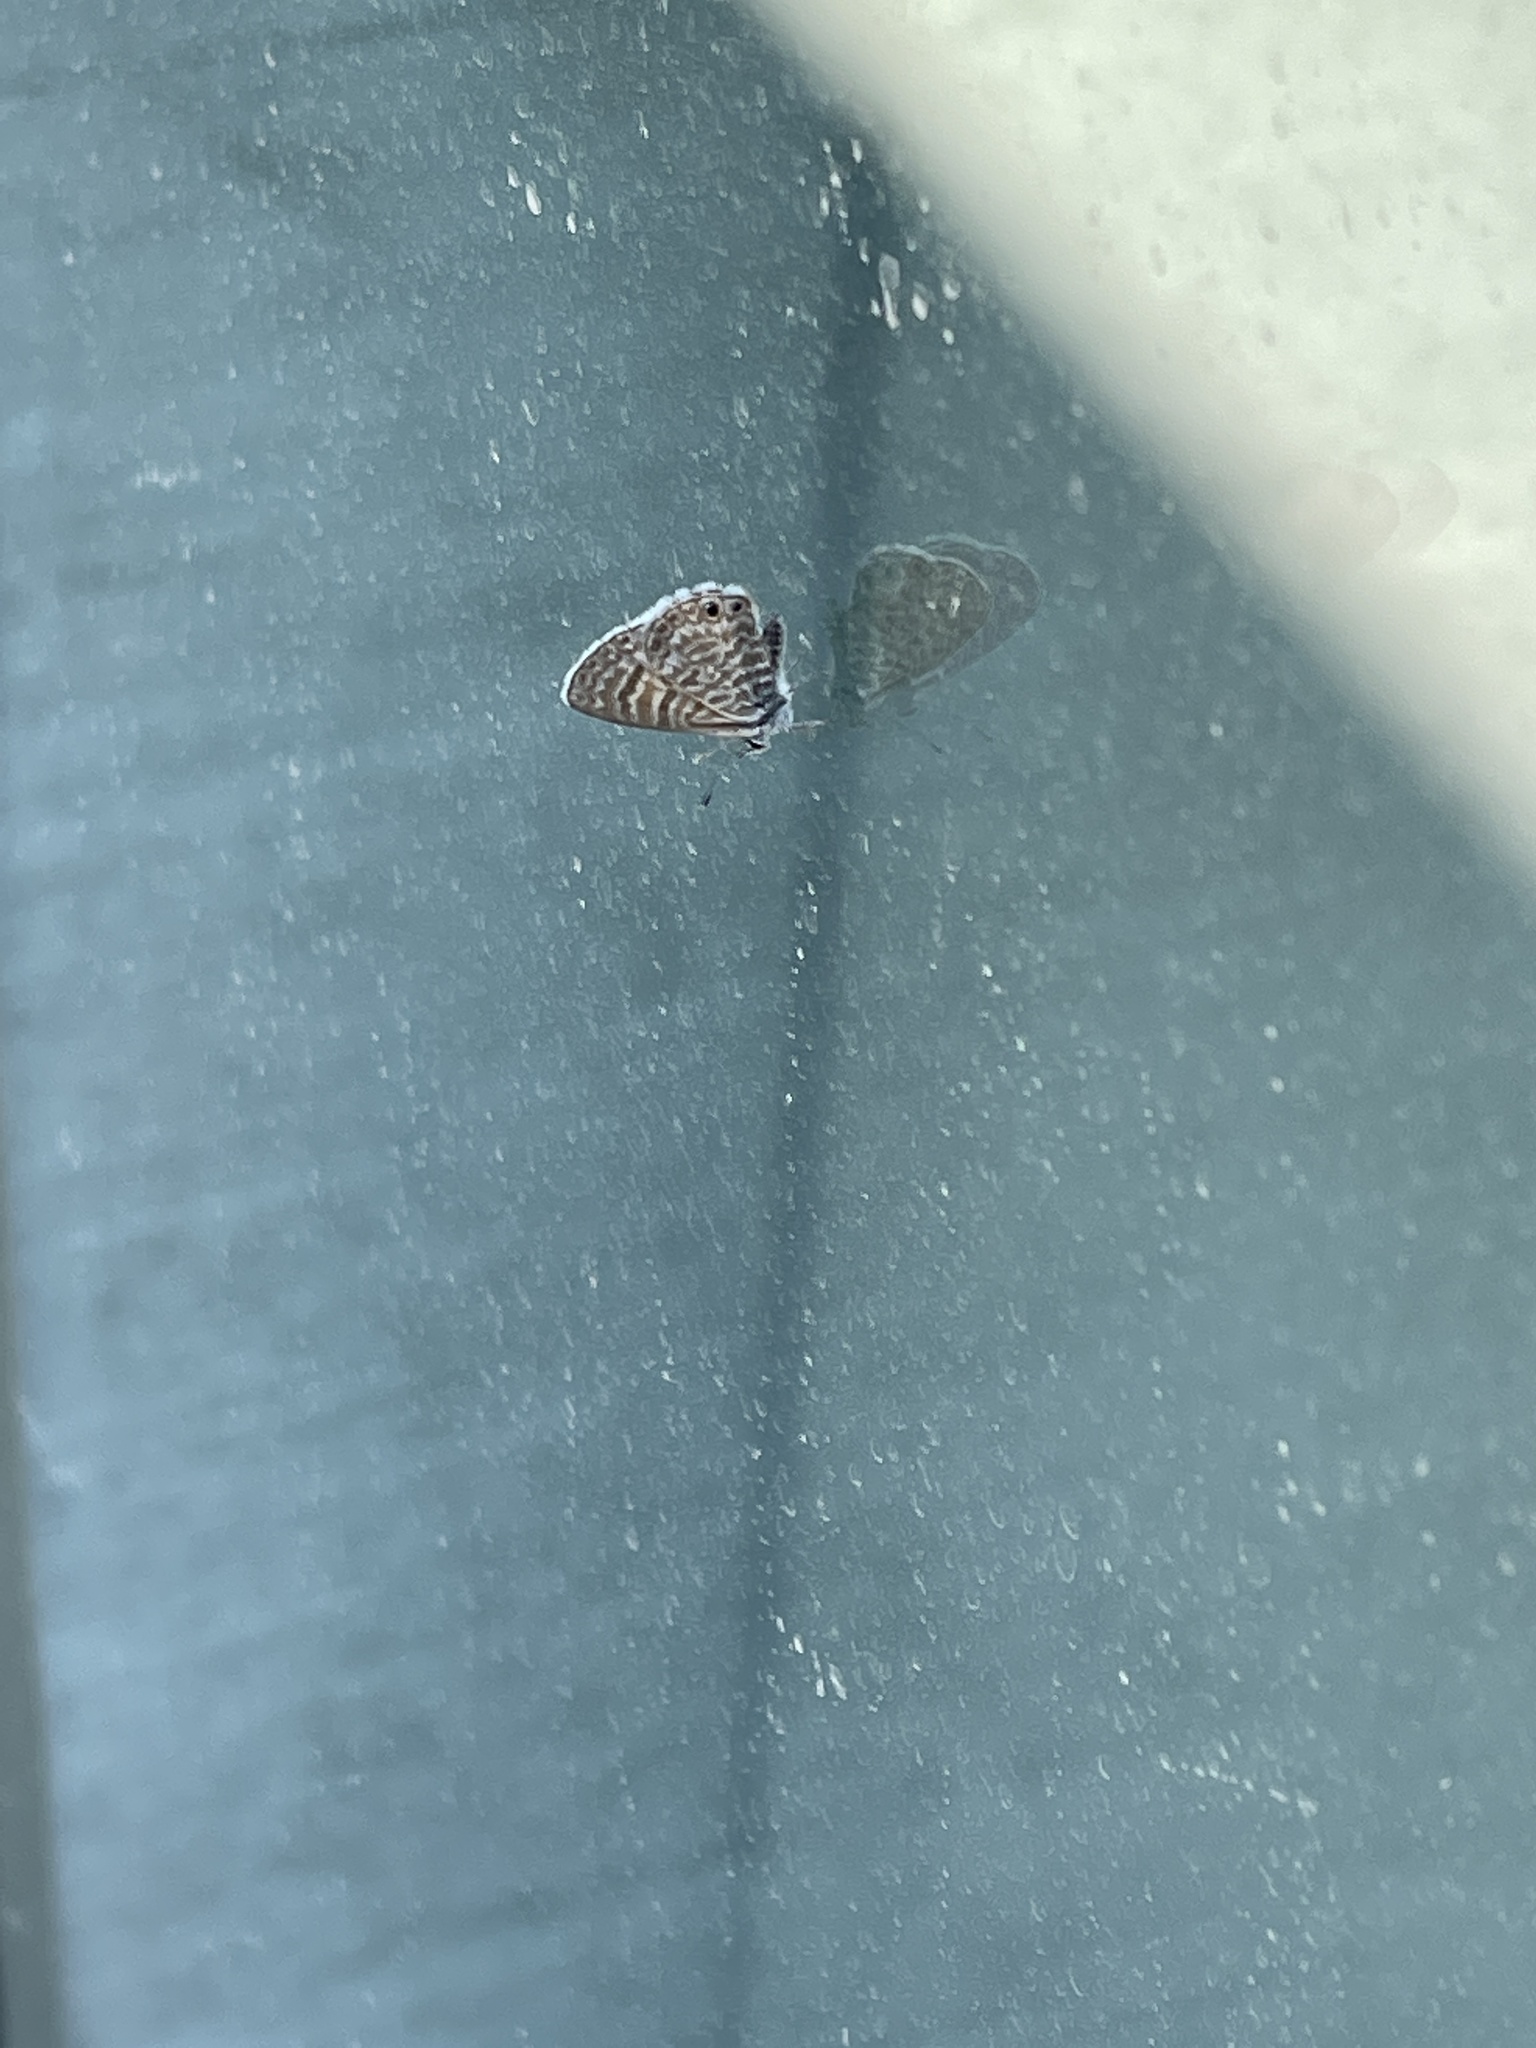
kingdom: Animalia
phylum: Arthropoda
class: Insecta
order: Lepidoptera
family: Lycaenidae
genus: Leptotes
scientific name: Leptotes marina
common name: Marine blue
